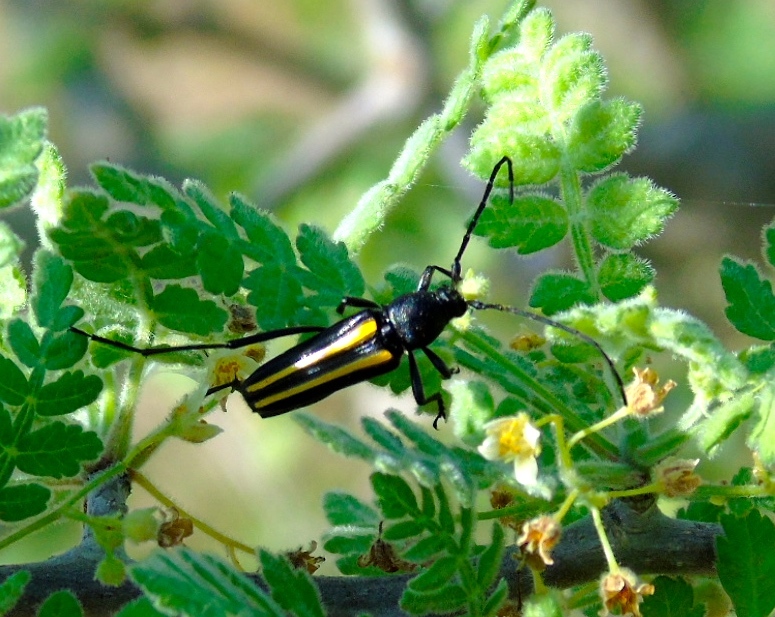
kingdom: Animalia
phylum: Arthropoda
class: Insecta
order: Coleoptera
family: Cerambycidae
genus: Lophalia
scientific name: Lophalia prolata
